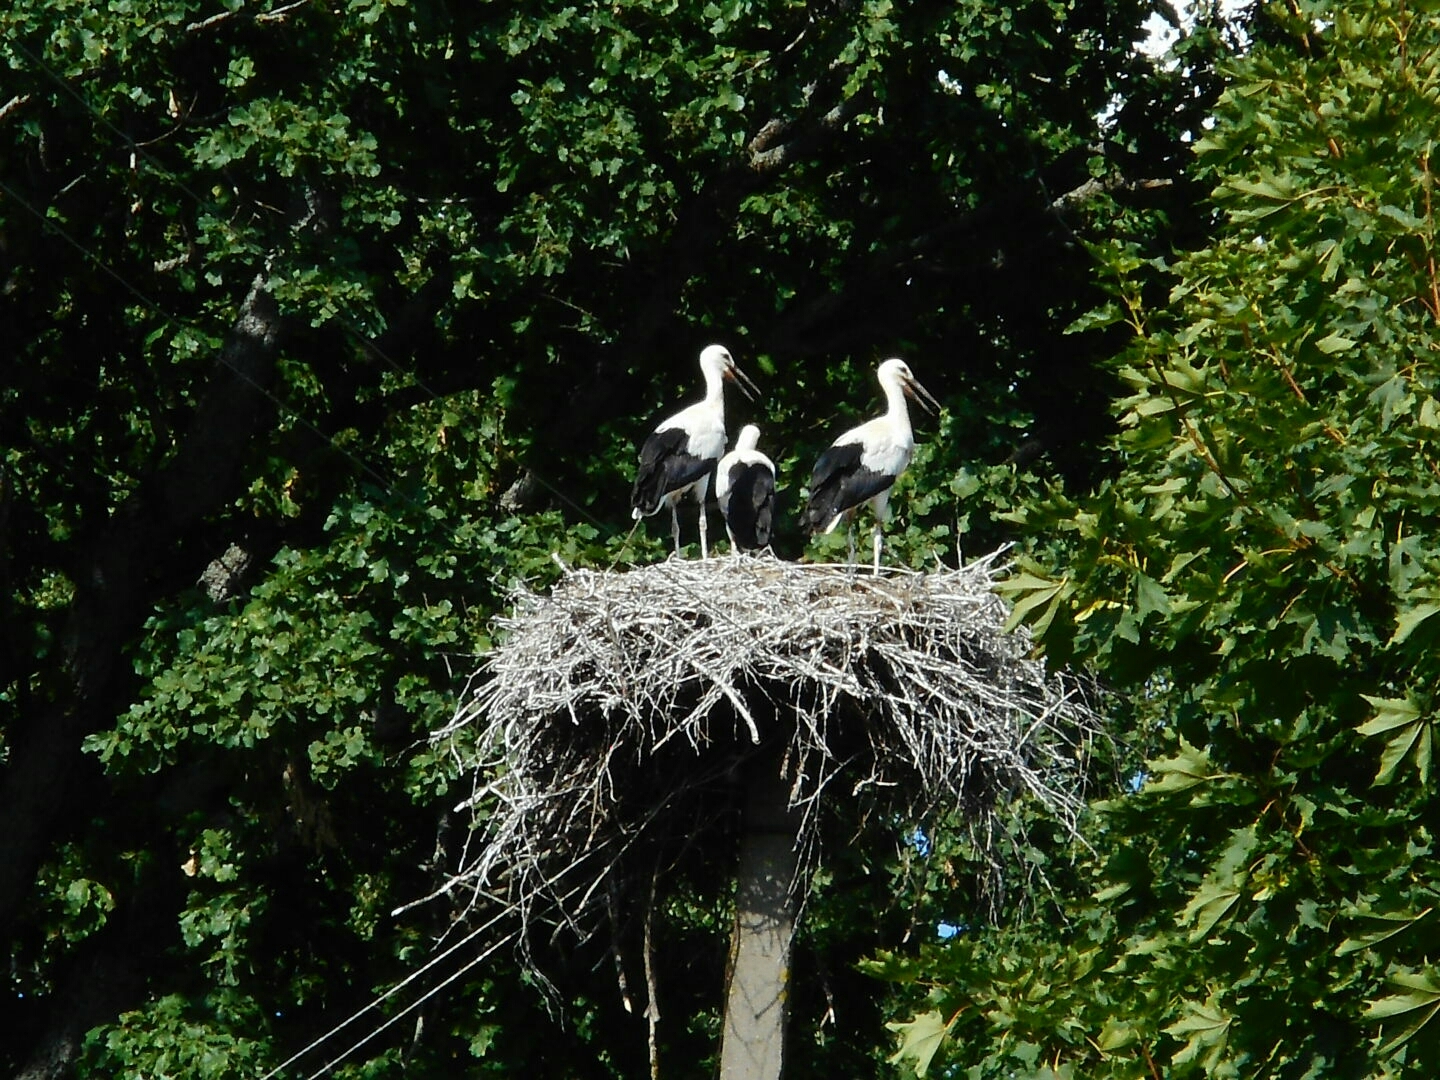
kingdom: Animalia
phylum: Chordata
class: Aves
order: Ciconiiformes
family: Ciconiidae
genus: Ciconia
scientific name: Ciconia ciconia
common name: White stork
